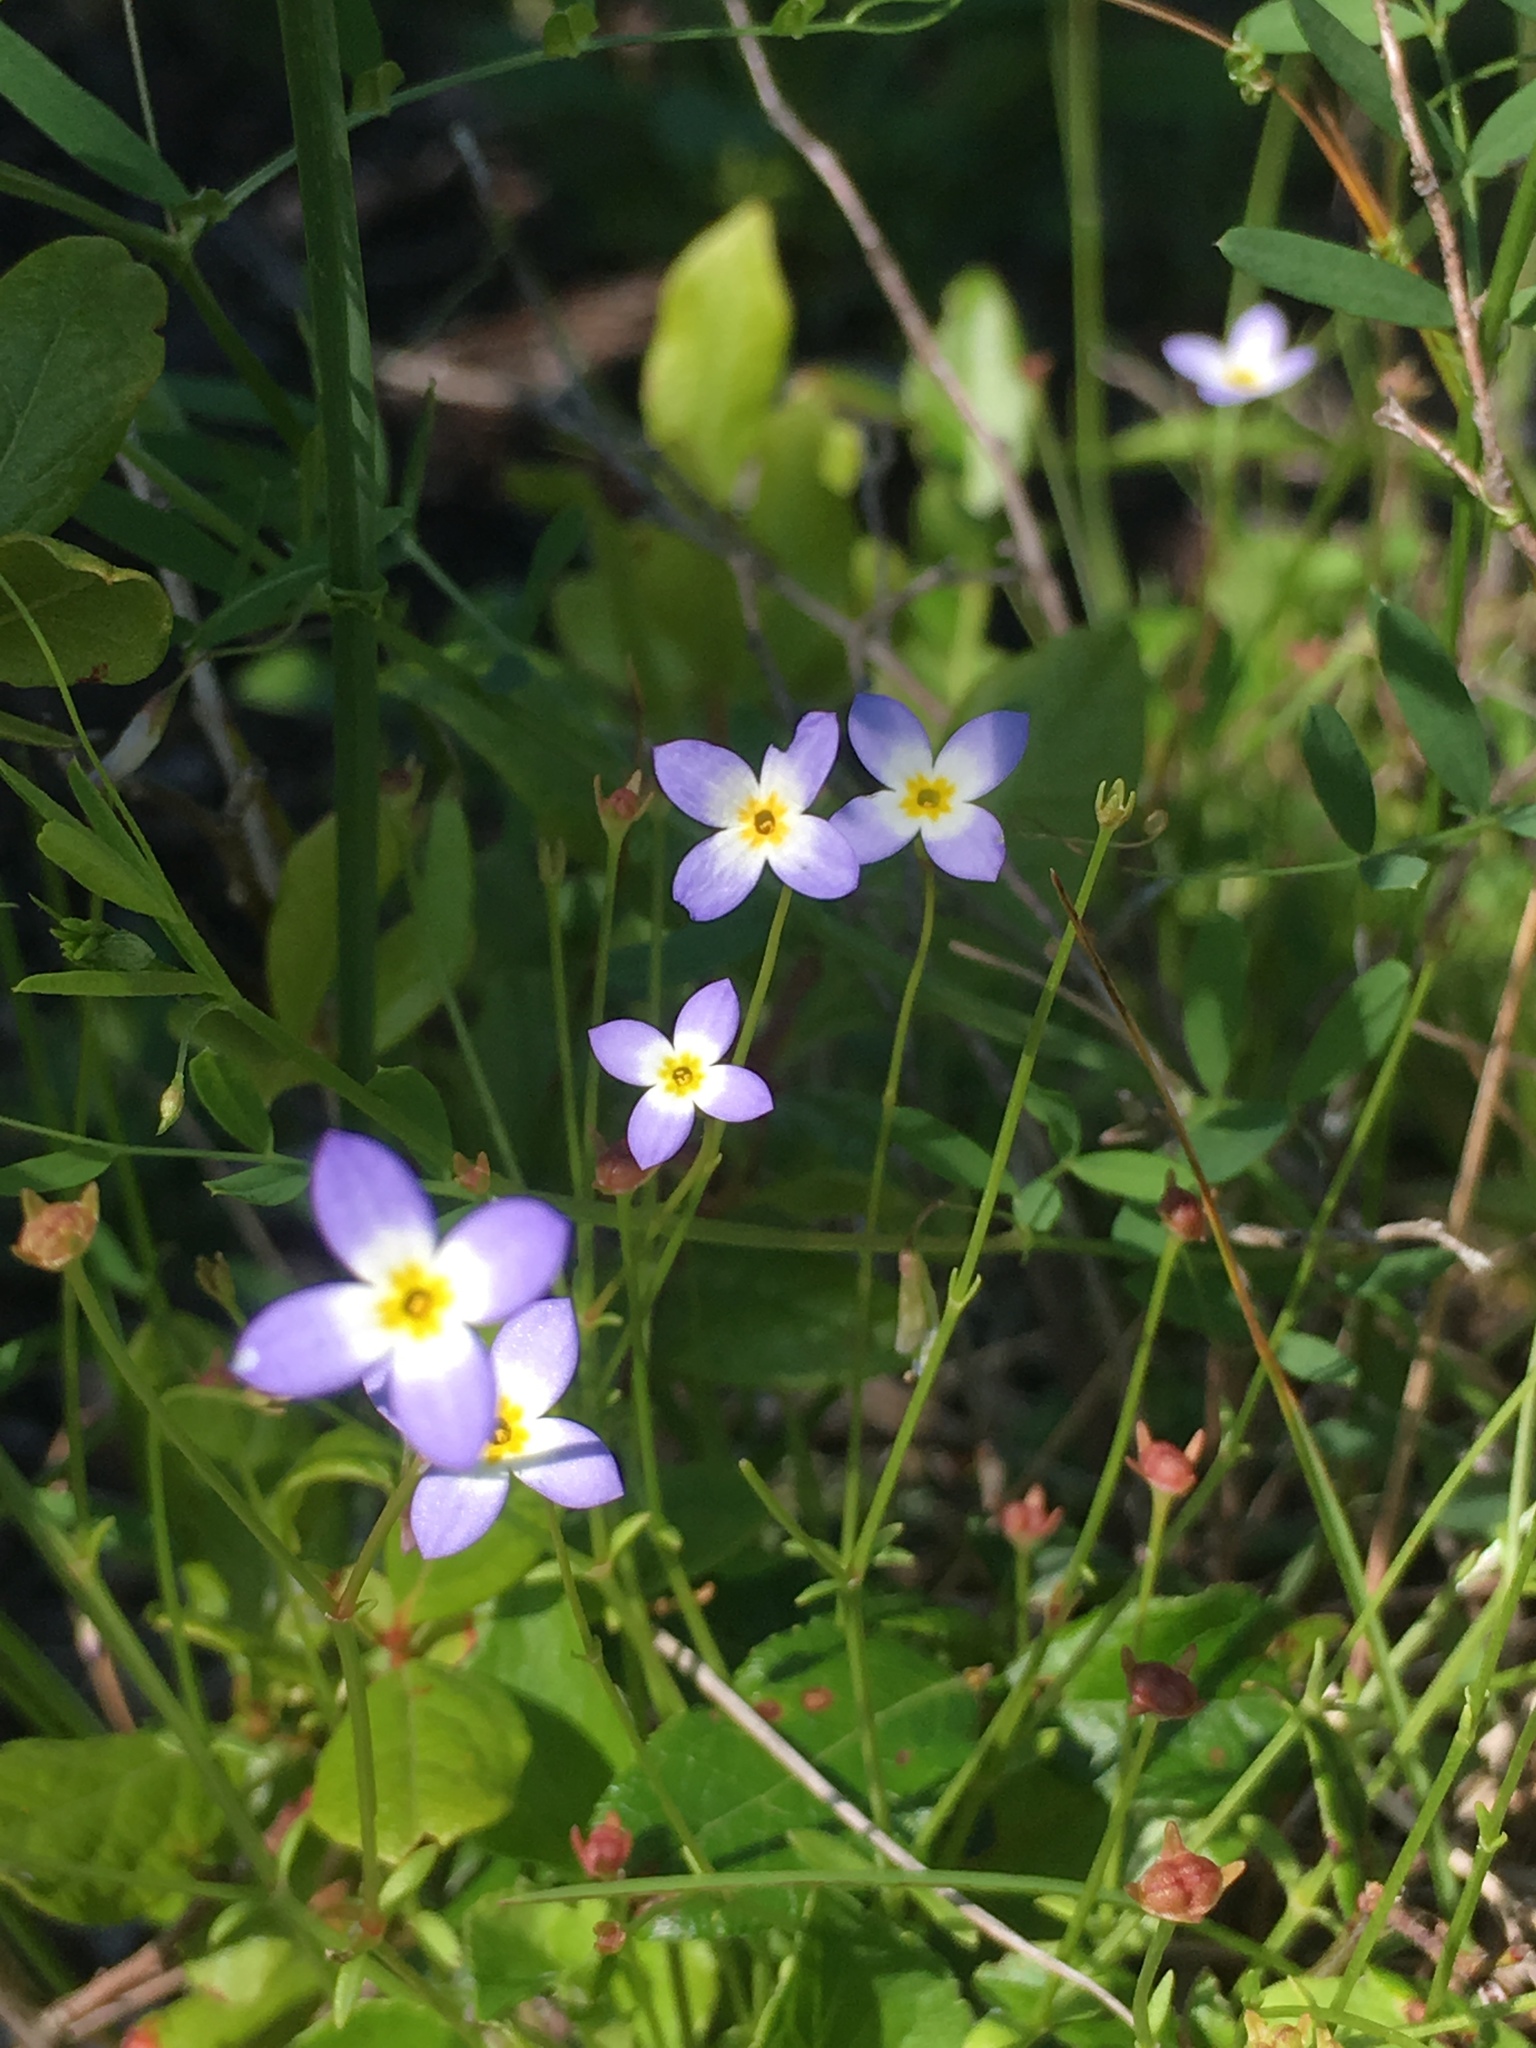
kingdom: Plantae
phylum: Tracheophyta
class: Magnoliopsida
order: Gentianales
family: Rubiaceae
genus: Houstonia
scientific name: Houstonia caerulea
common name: Bluets
